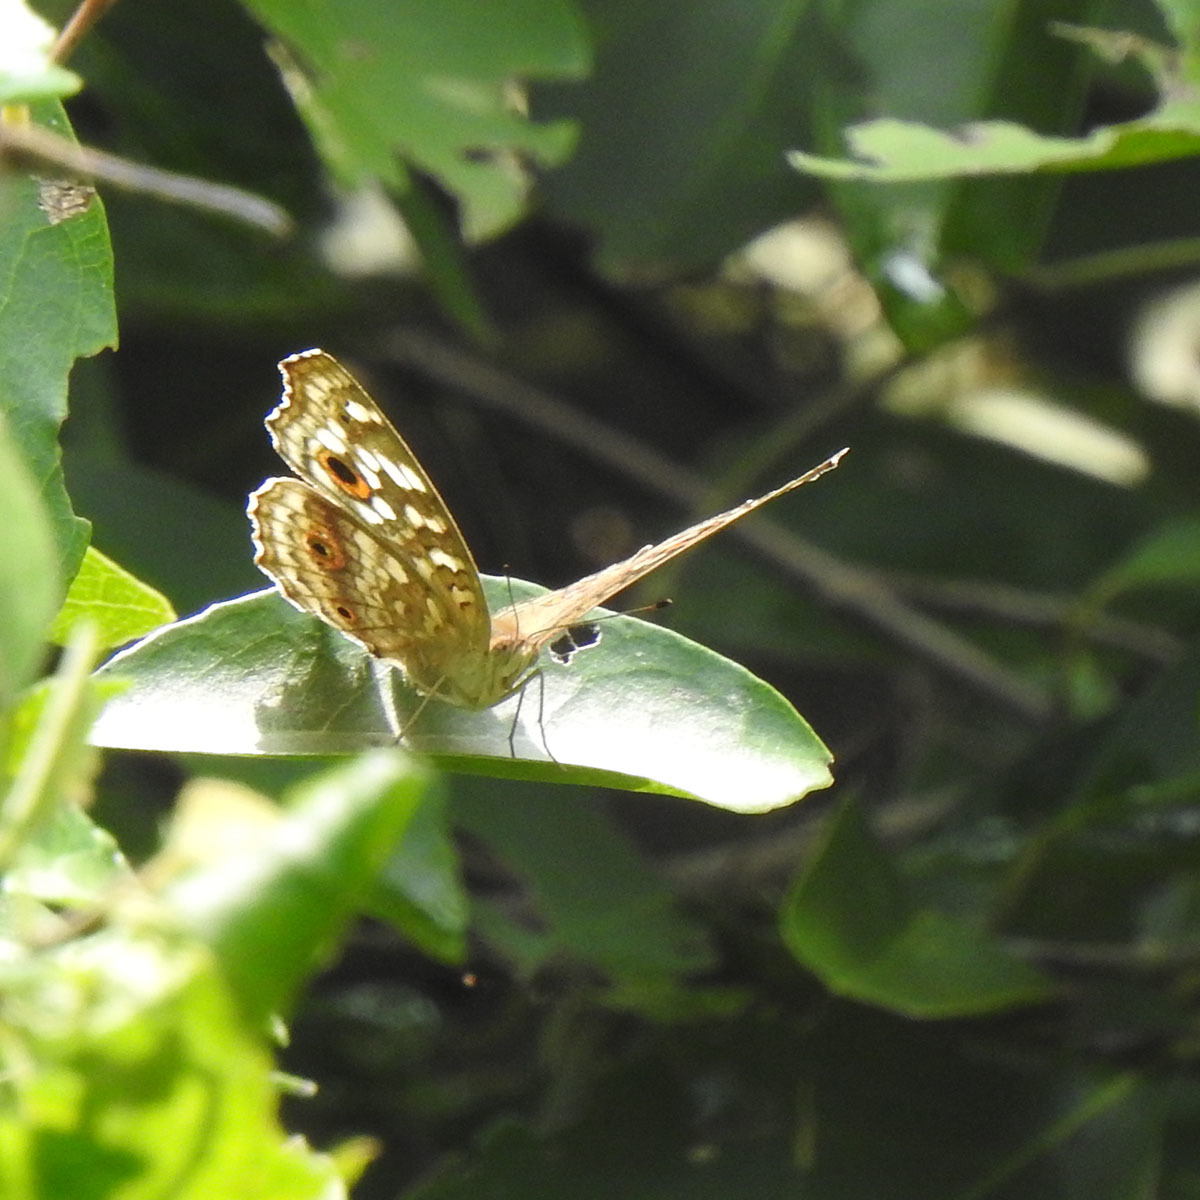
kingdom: Animalia
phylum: Arthropoda
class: Insecta
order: Lepidoptera
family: Nymphalidae
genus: Junonia
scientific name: Junonia lemonias
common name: Lemon pansy
